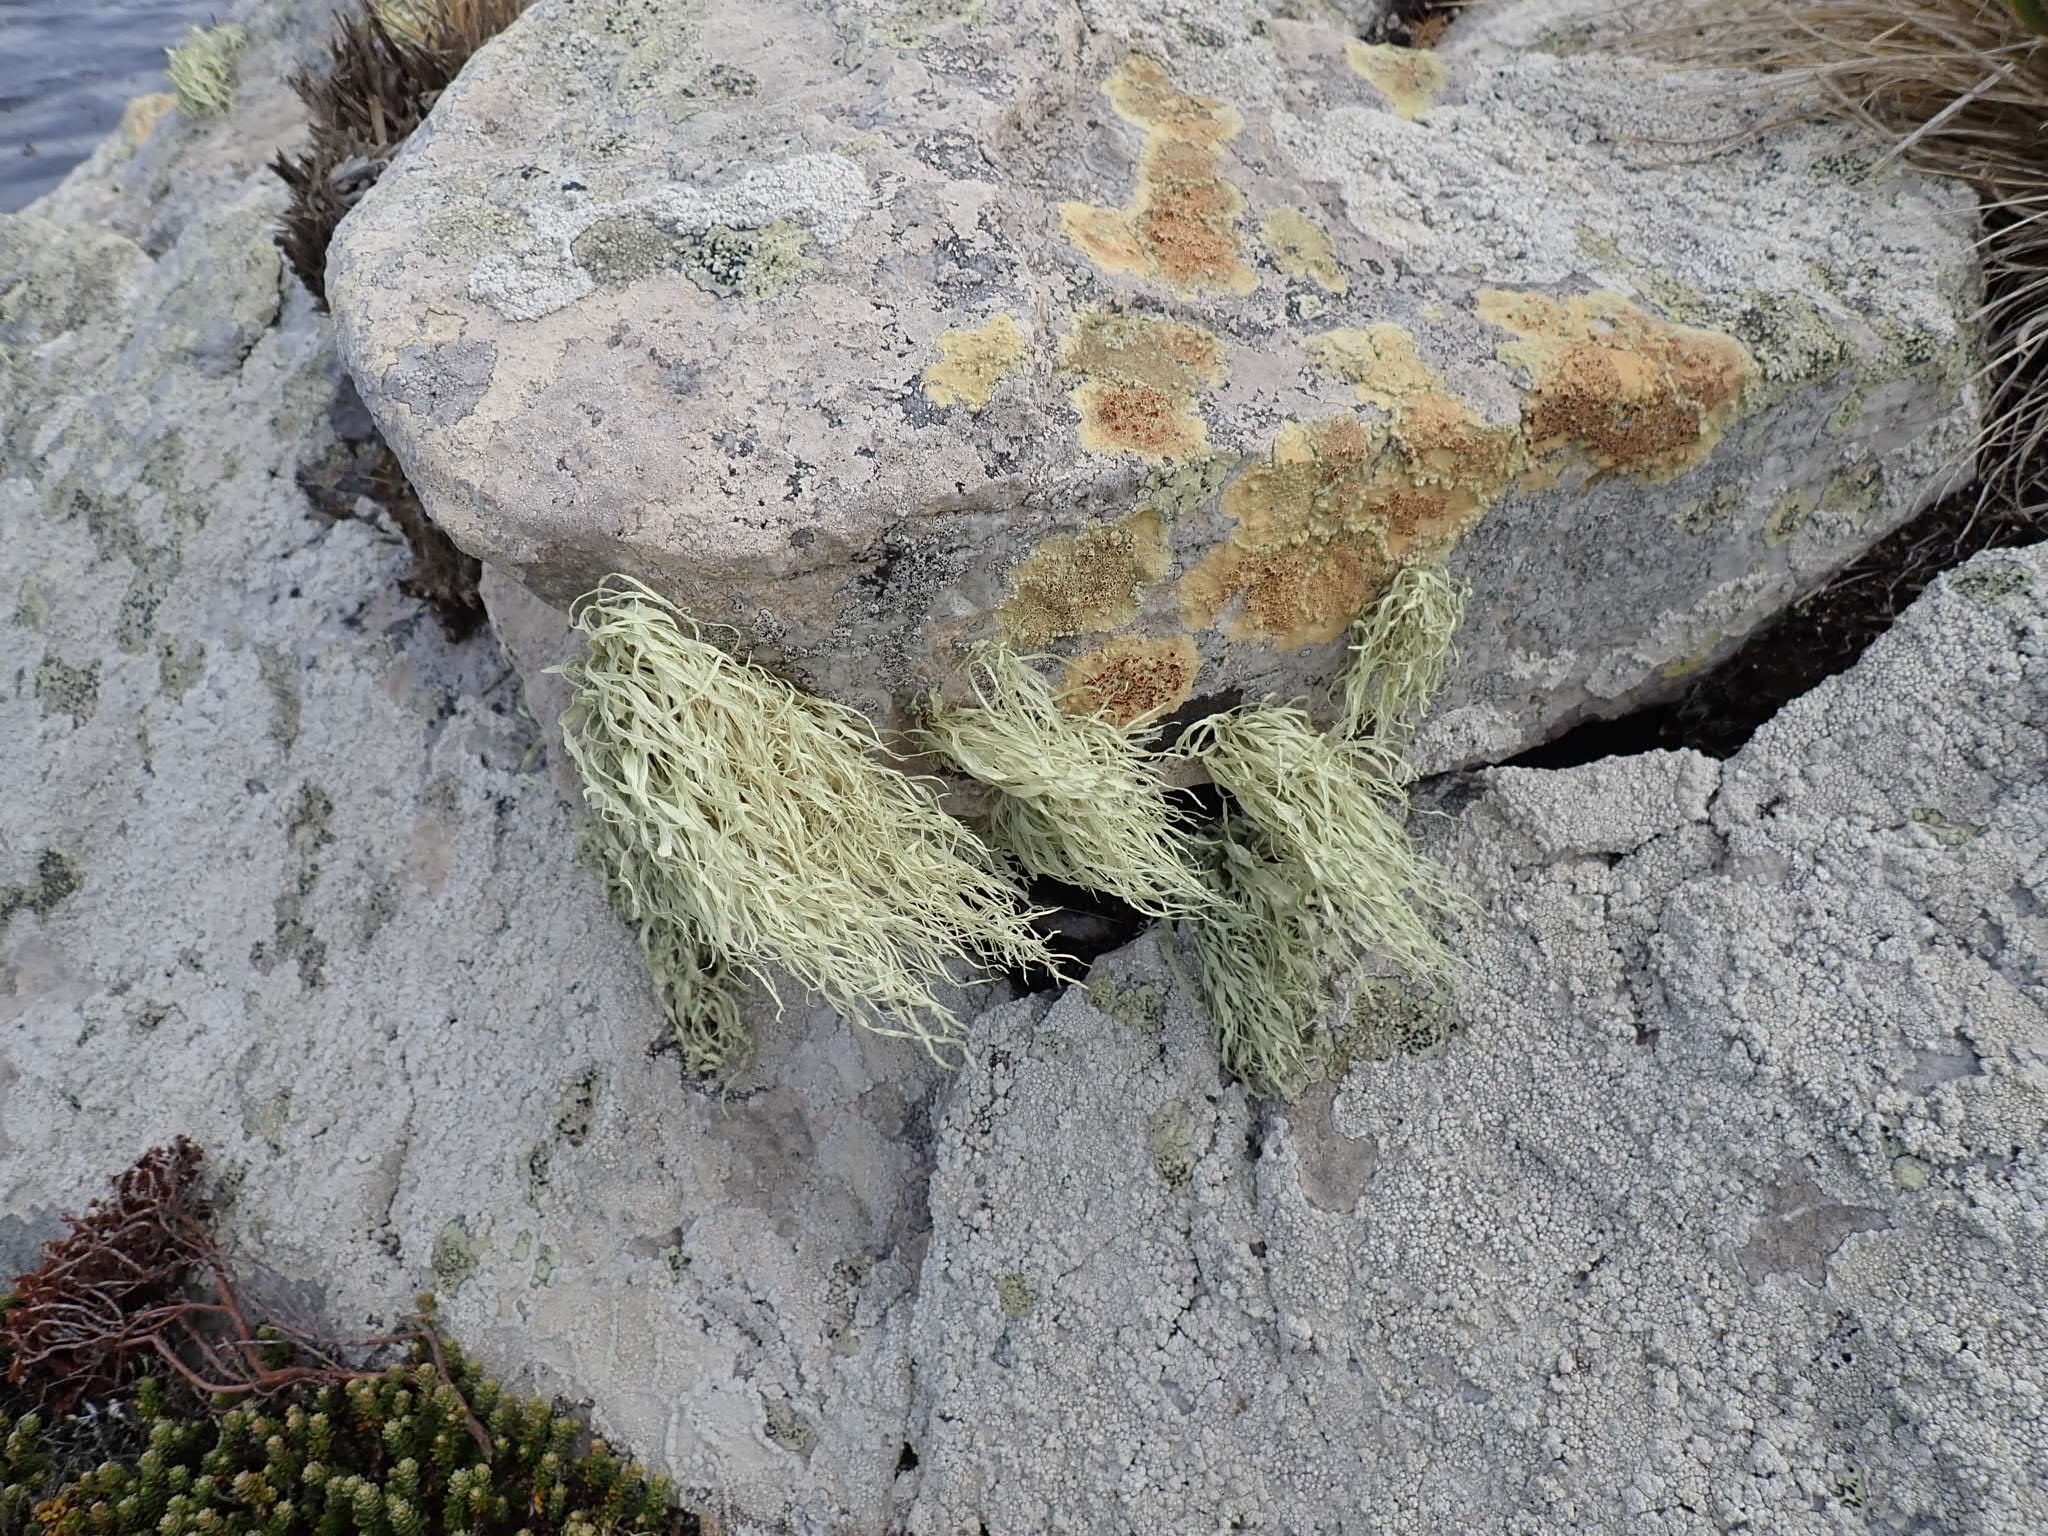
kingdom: Fungi
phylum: Ascomycota
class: Lecanoromycetes
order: Lecanorales
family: Ramalinaceae
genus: Ramalina
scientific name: Ramalina terebrata
